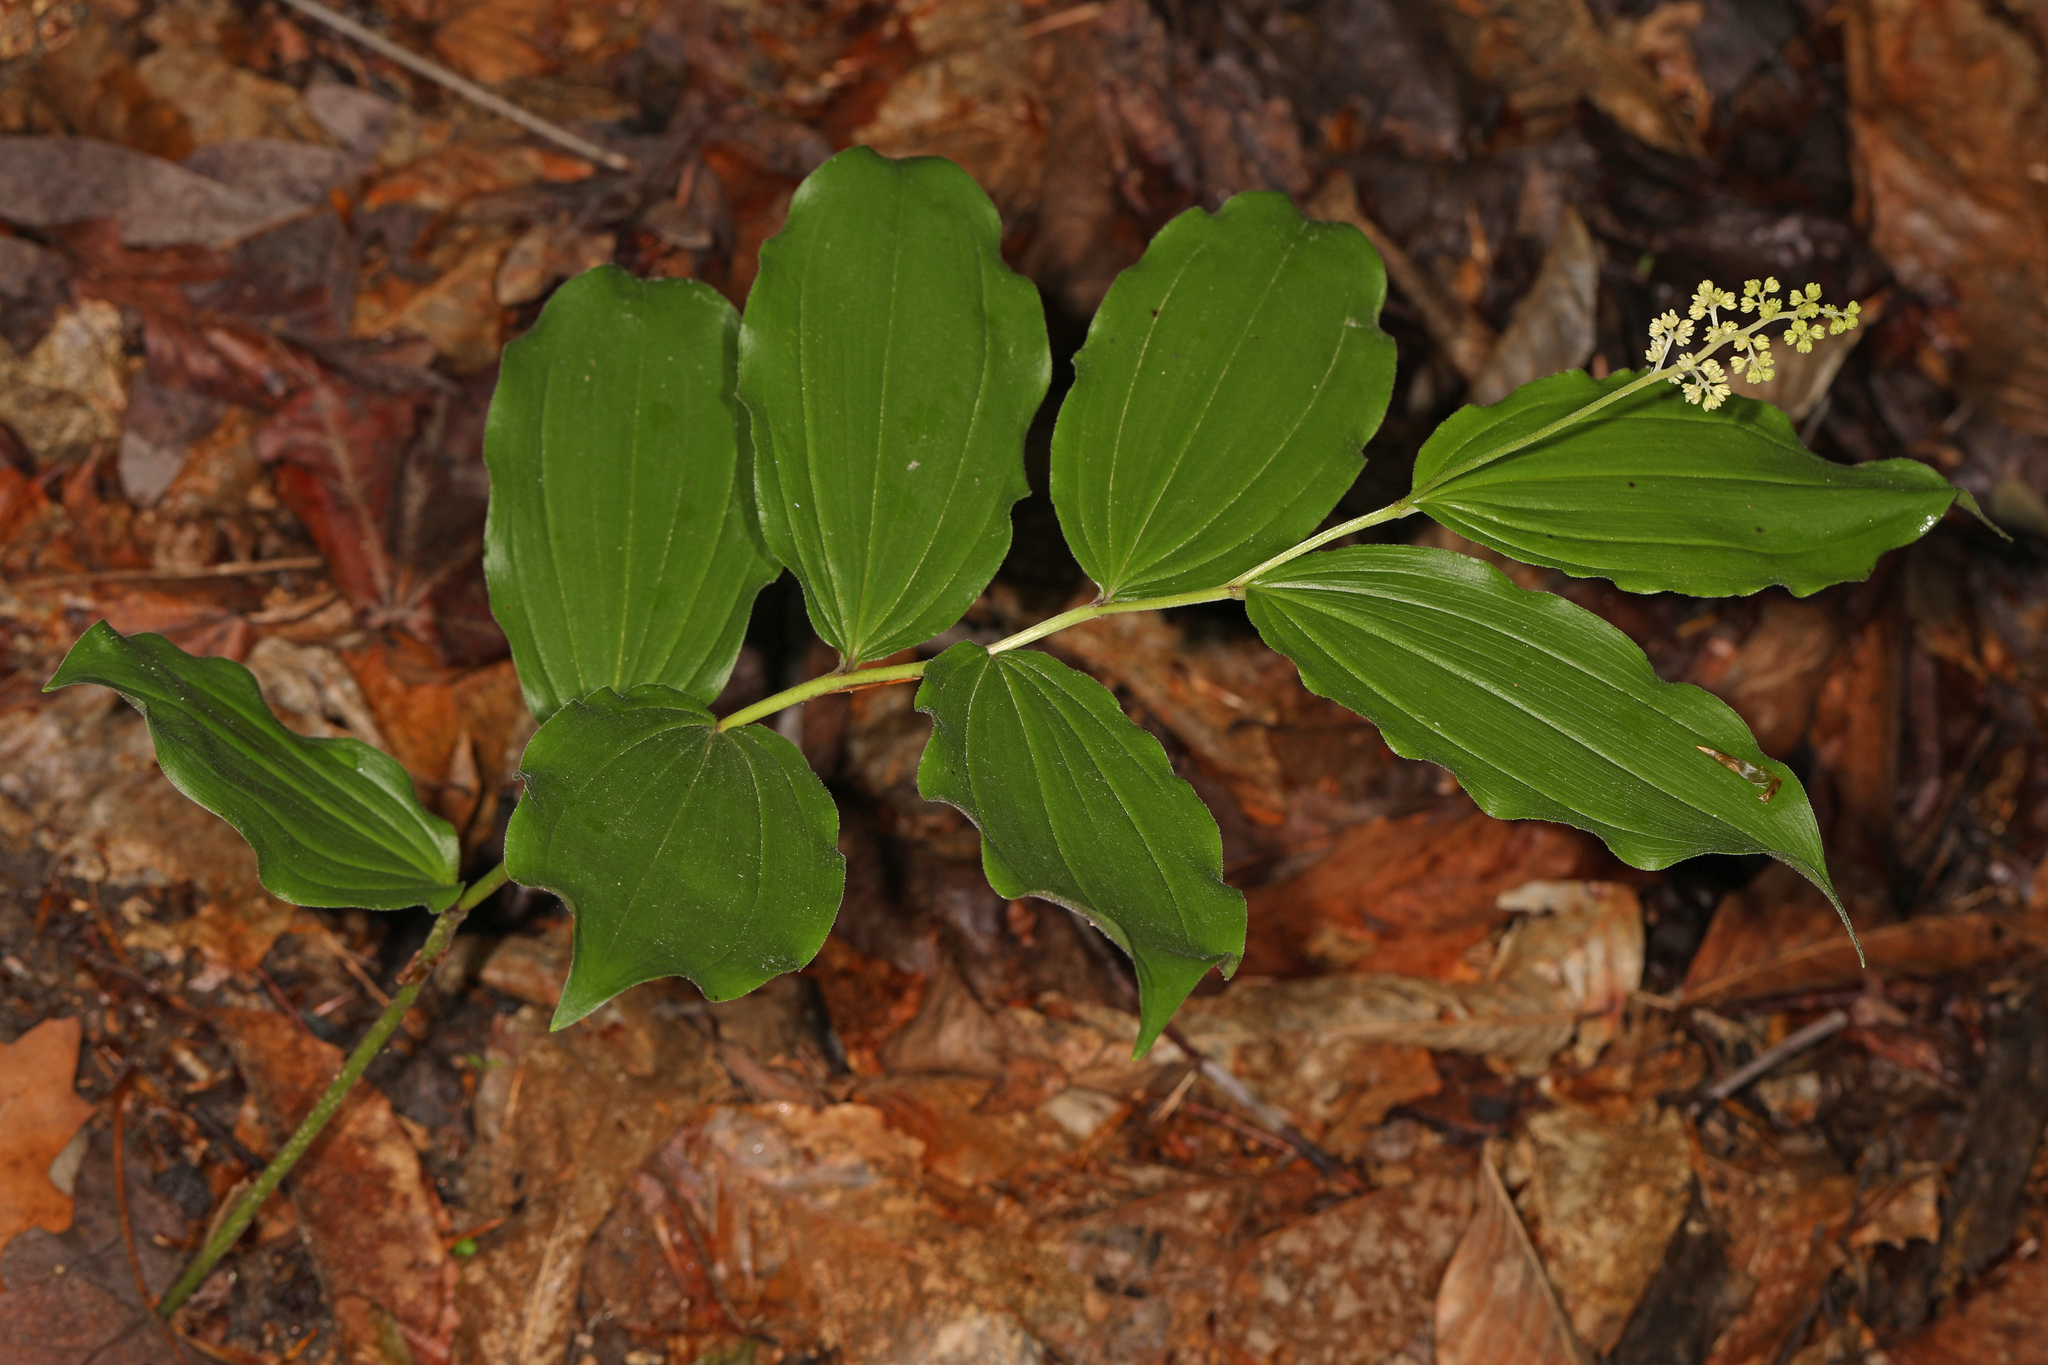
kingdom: Plantae
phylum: Tracheophyta
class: Liliopsida
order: Asparagales
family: Asparagaceae
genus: Maianthemum
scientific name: Maianthemum racemosum
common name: False spikenard
